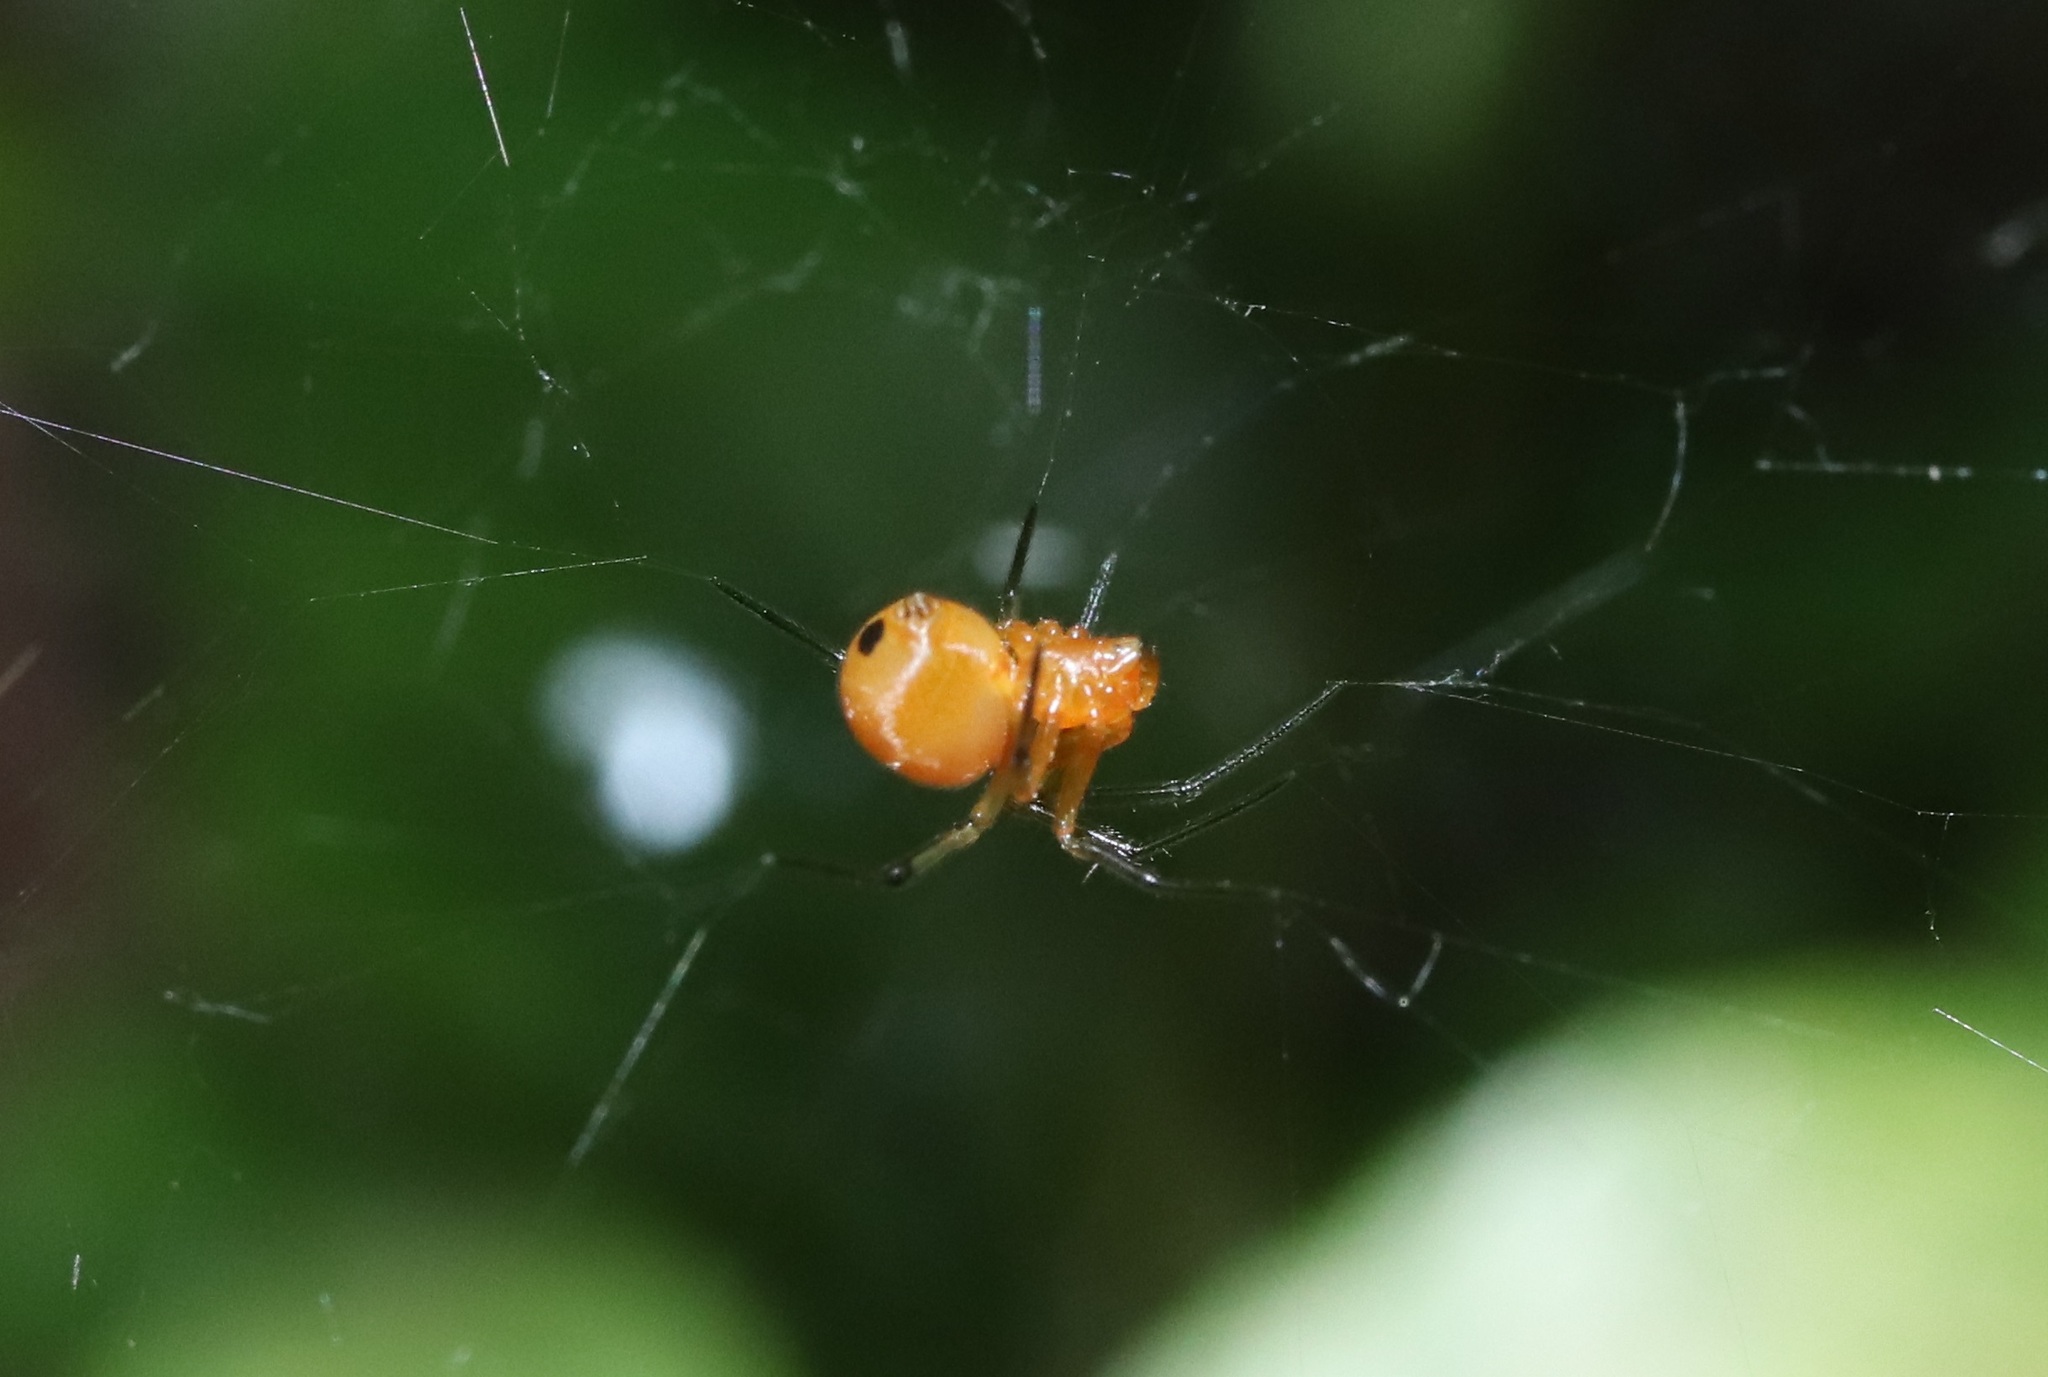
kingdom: Animalia
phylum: Arthropoda
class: Arachnida
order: Araneae
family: Theridiidae
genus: Nihonhimea
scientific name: Nihonhimea japonica
